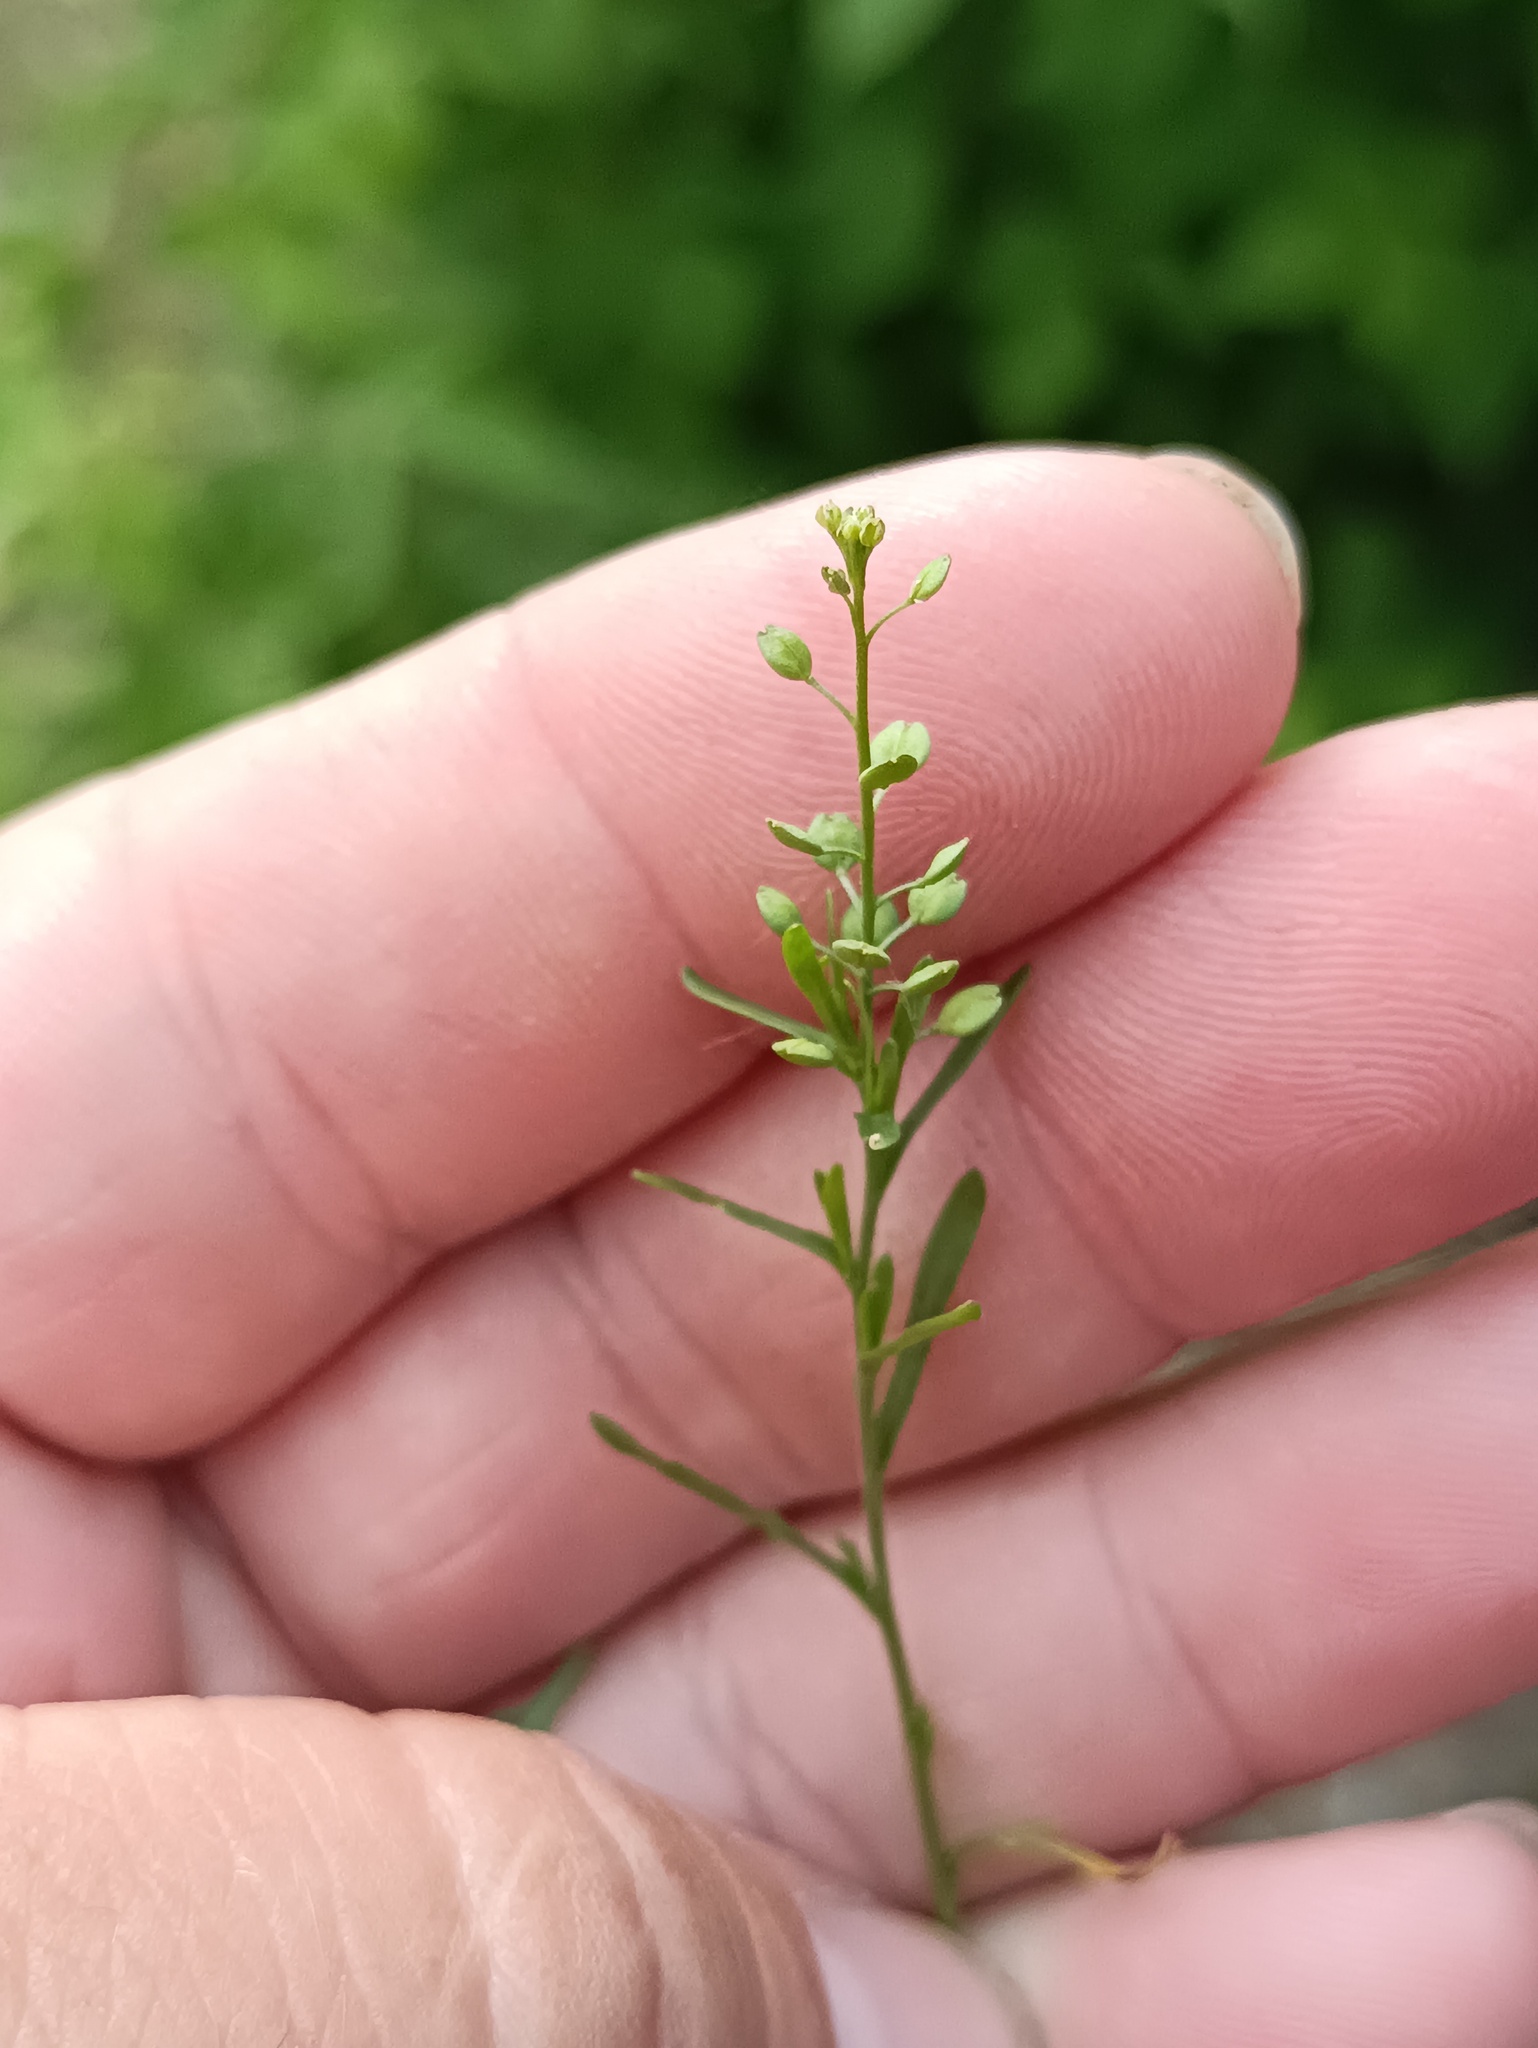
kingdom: Plantae
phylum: Tracheophyta
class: Magnoliopsida
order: Brassicales
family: Brassicaceae
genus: Lepidium
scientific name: Lepidium ruderale
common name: Narrow-leaved pepperwort
